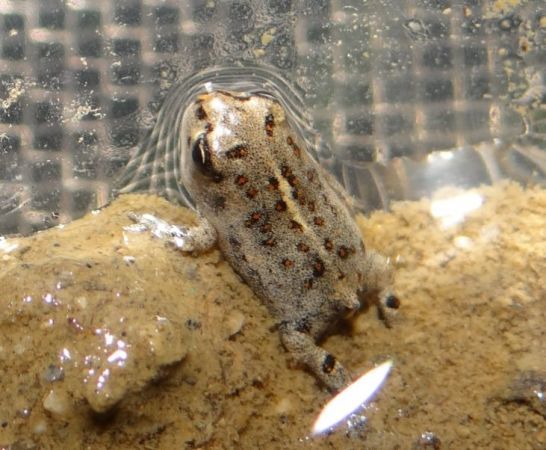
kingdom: Animalia
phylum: Chordata
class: Amphibia
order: Anura
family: Bufonidae
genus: Epidalea
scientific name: Epidalea calamita
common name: Natterjack toad
